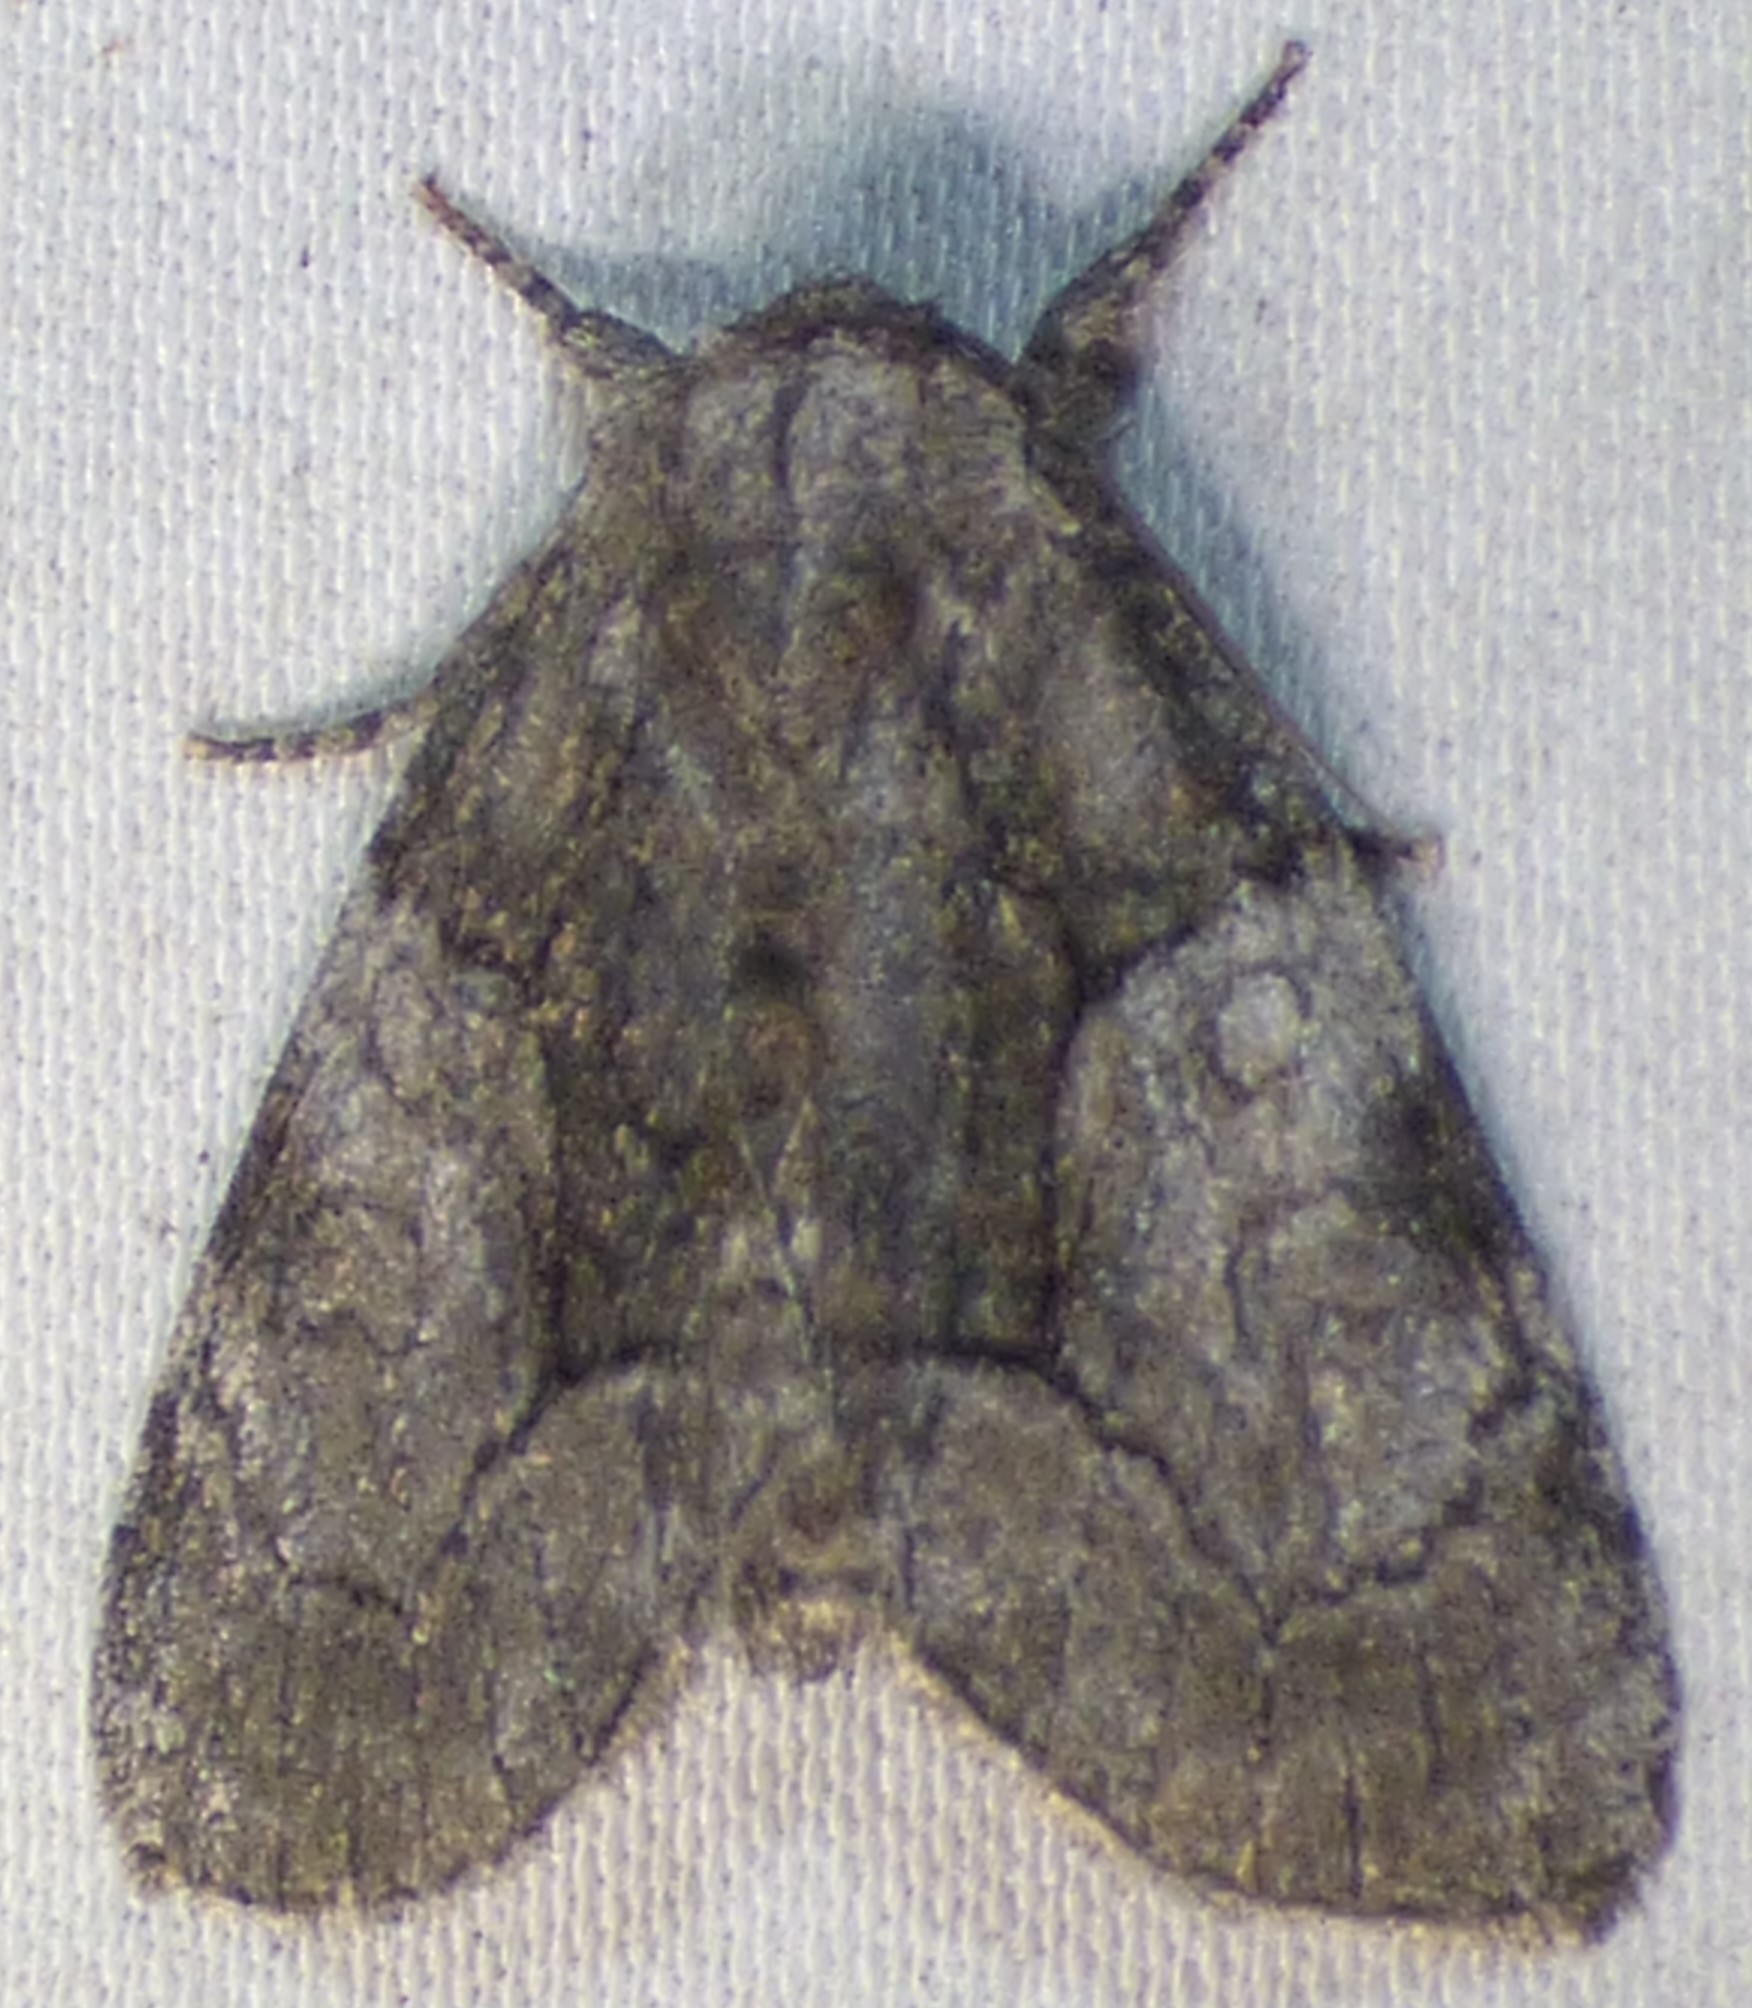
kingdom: Animalia
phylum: Arthropoda
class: Insecta
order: Lepidoptera
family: Noctuidae
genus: Raphia
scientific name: Raphia frater
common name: Brother
